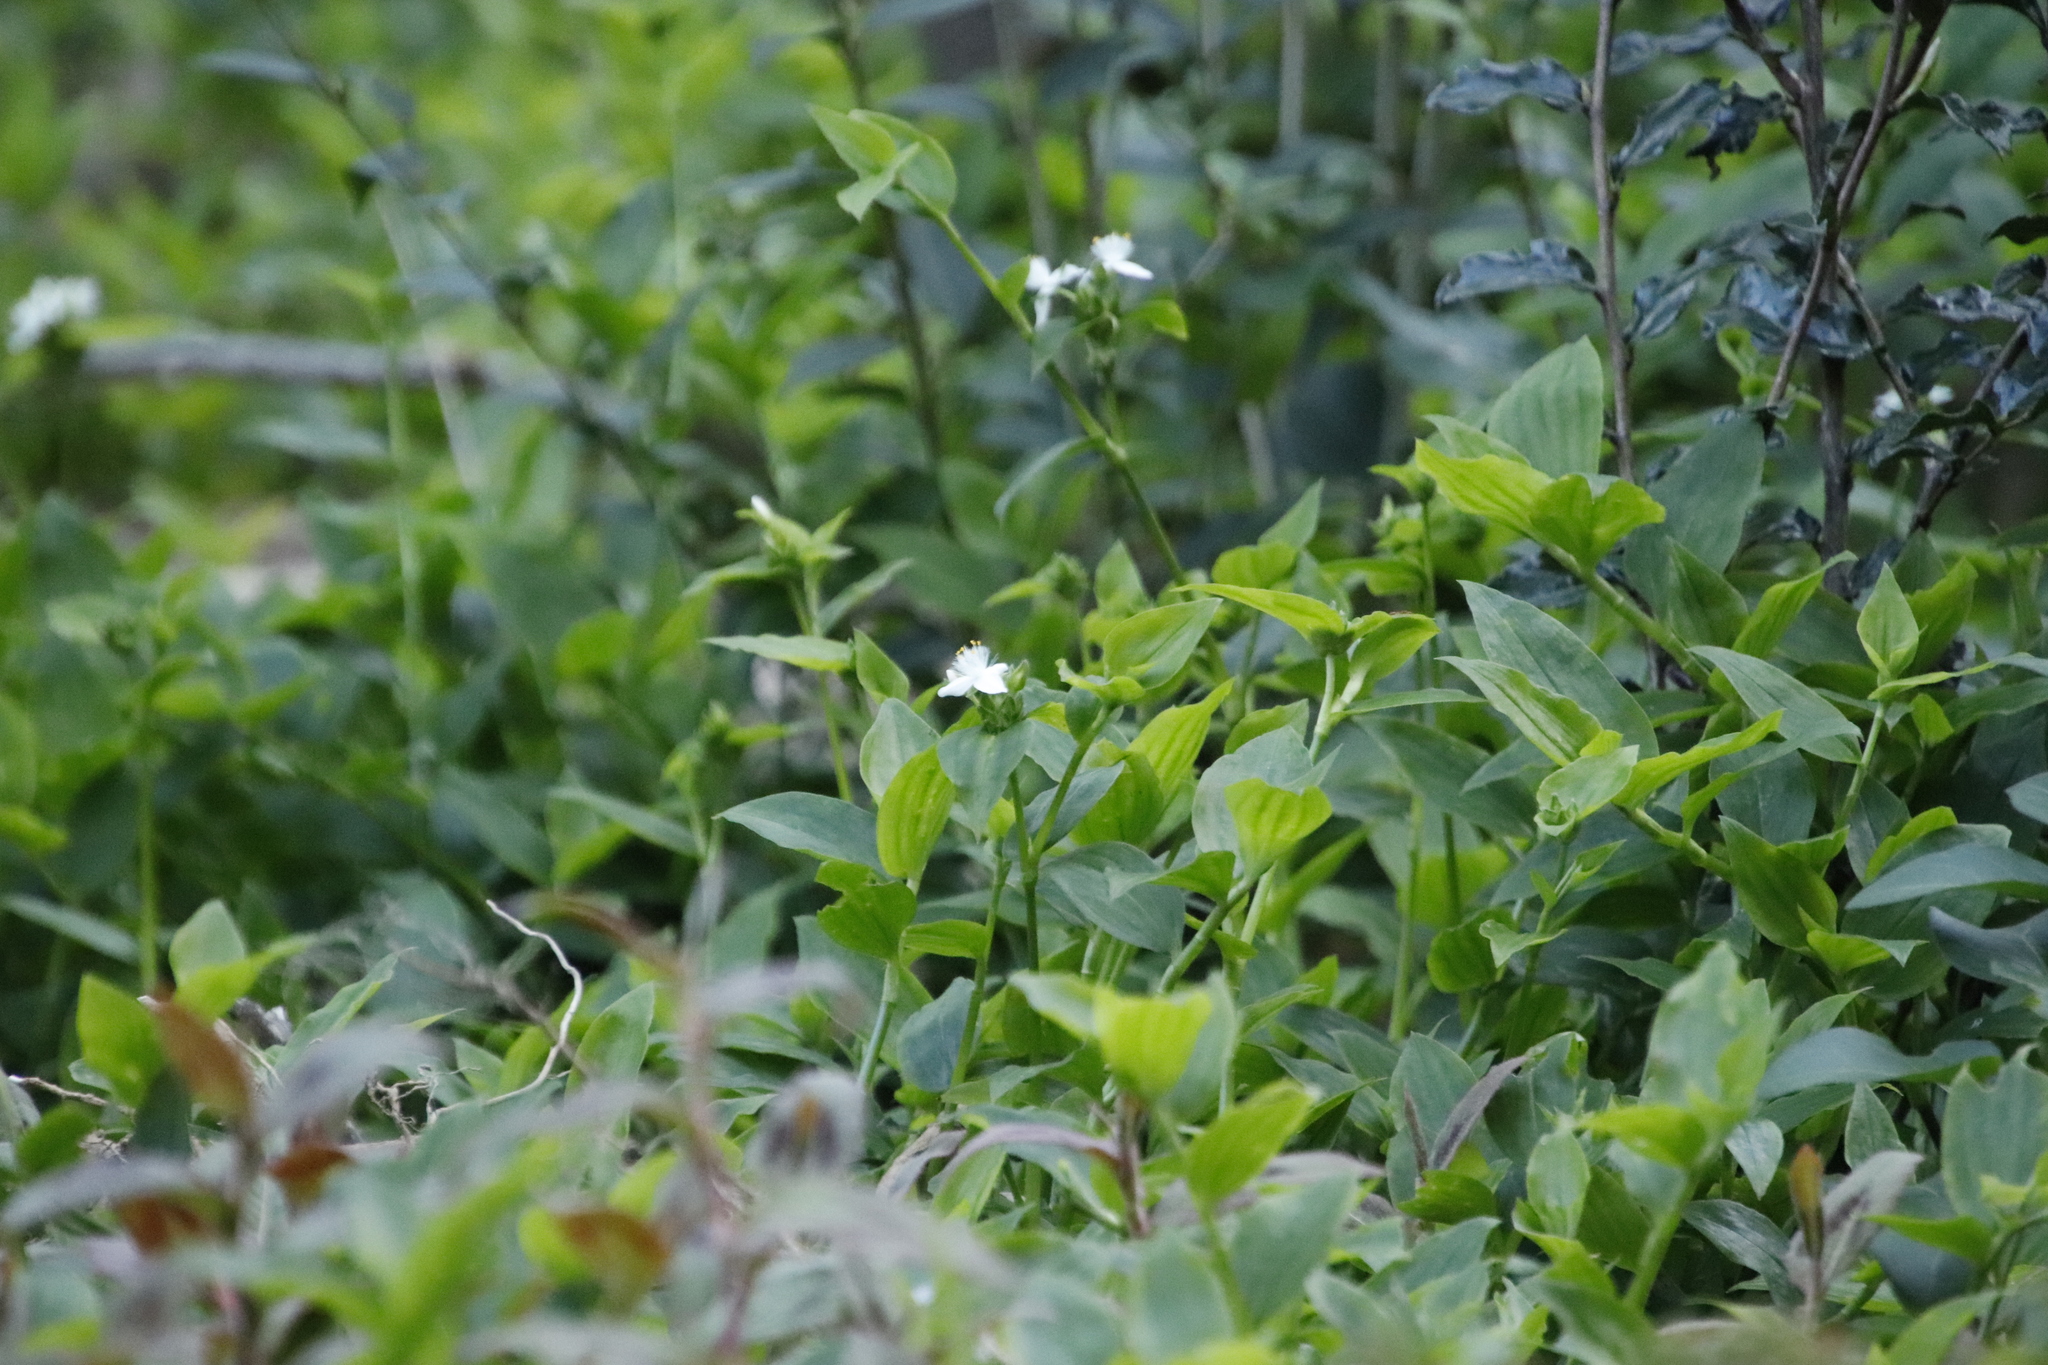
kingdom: Plantae
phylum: Tracheophyta
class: Liliopsida
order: Commelinales
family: Commelinaceae
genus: Tradescantia
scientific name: Tradescantia fluminensis
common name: Wandering-jew
